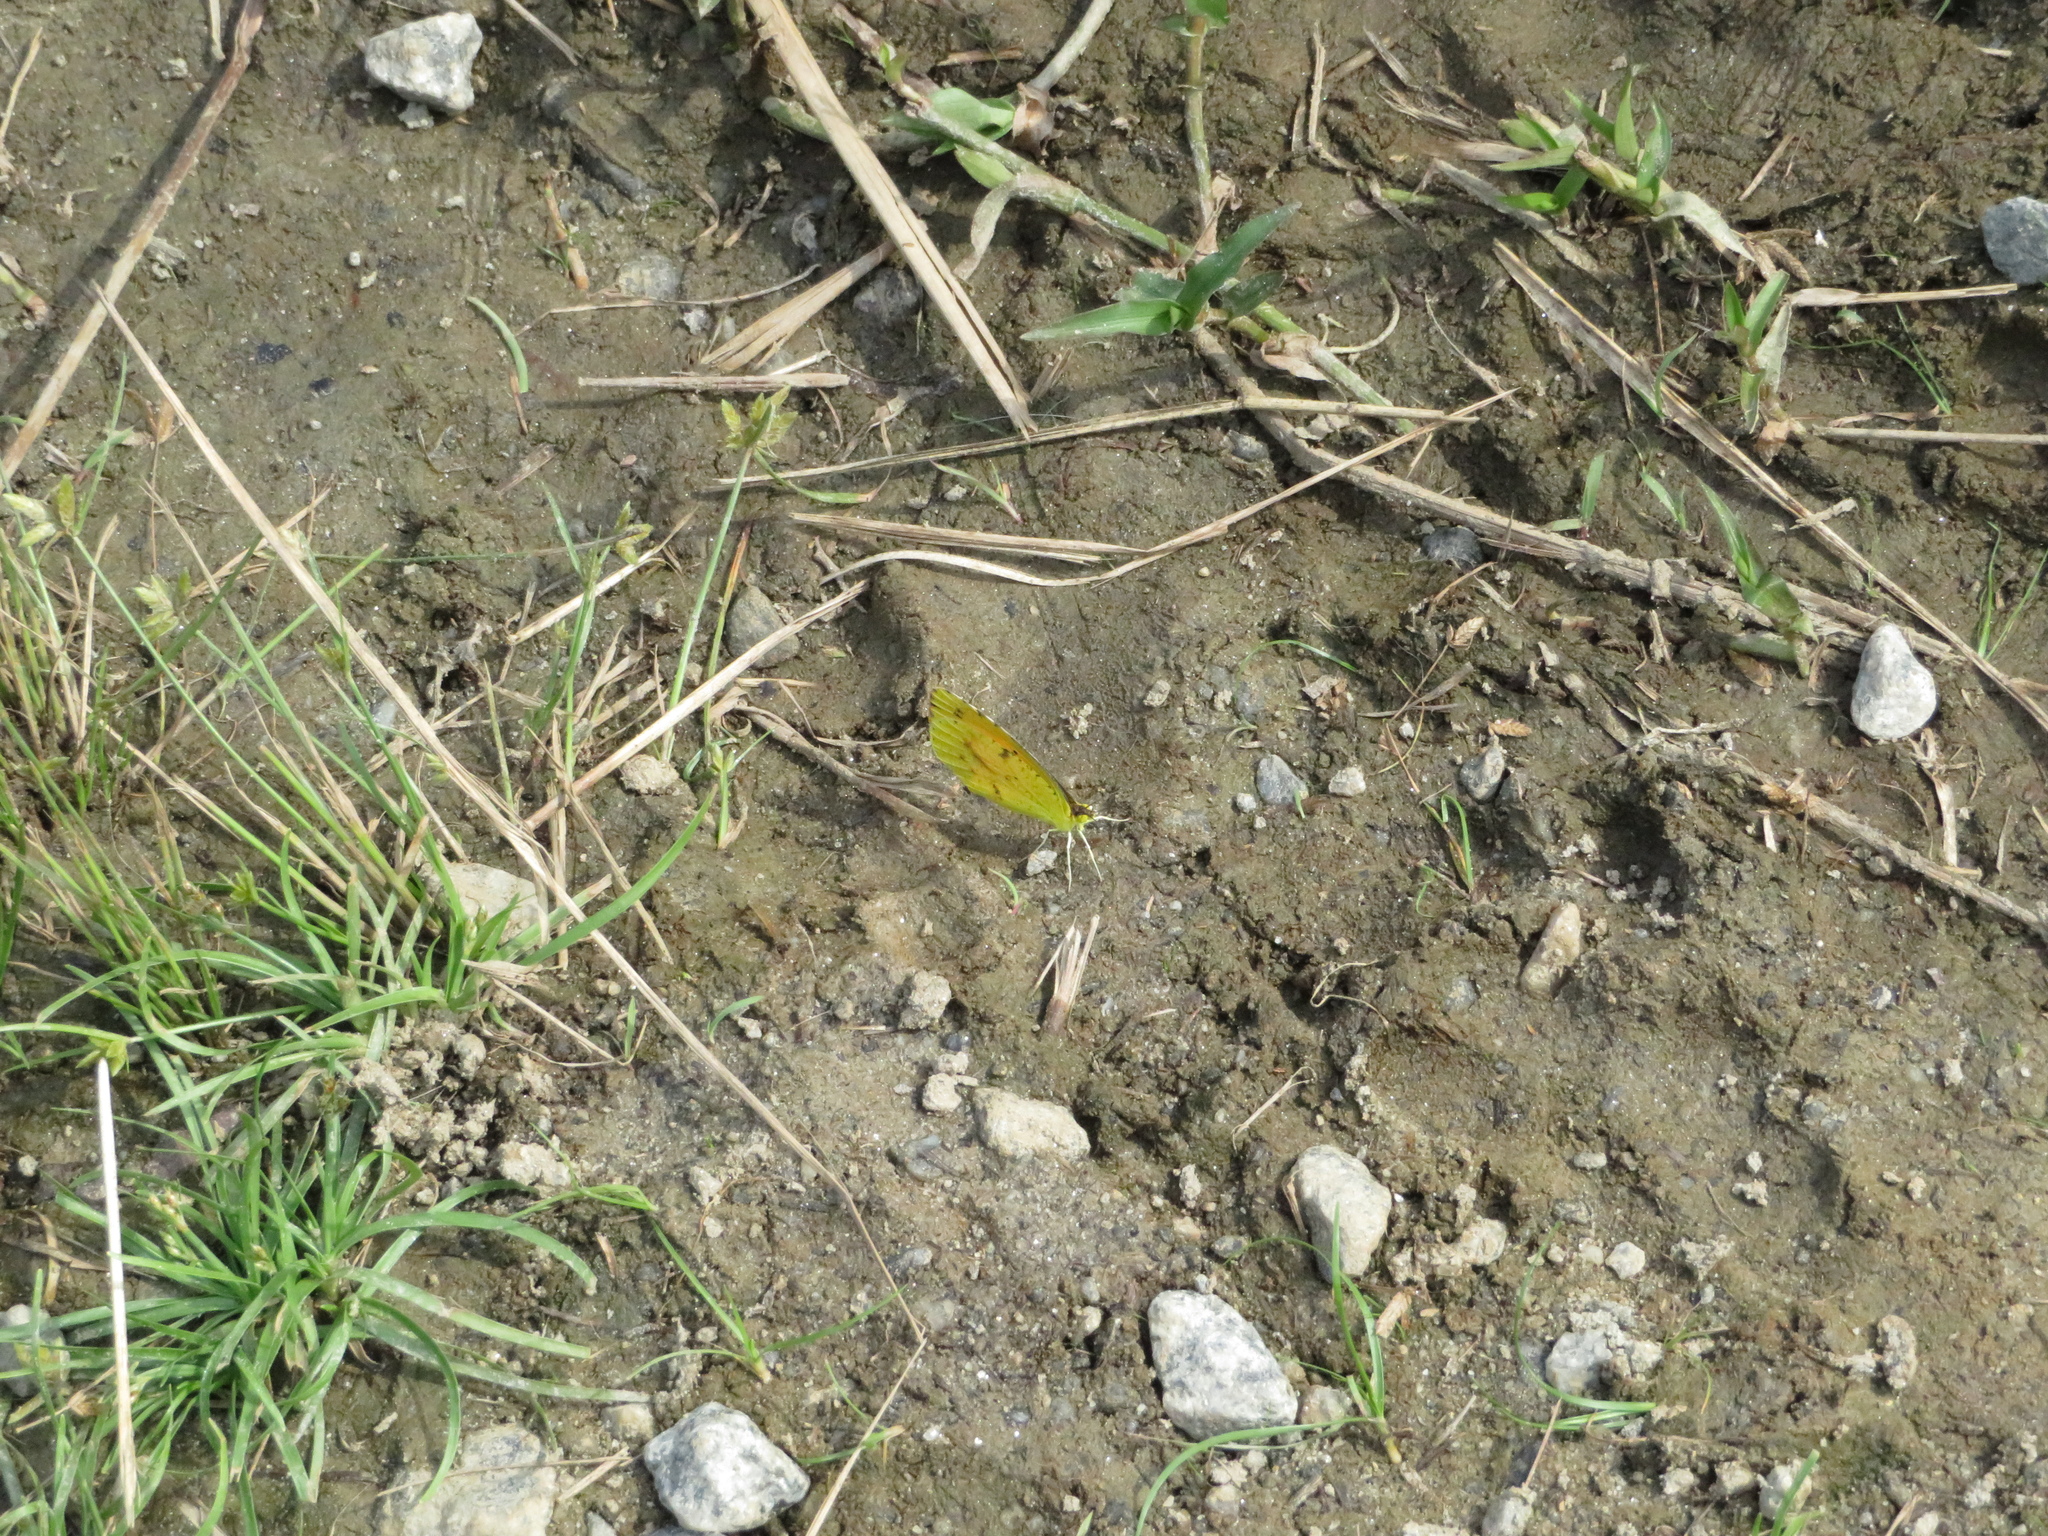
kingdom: Animalia
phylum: Arthropoda
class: Insecta
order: Lepidoptera
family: Pieridae
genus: Abaeis
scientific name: Abaeis nicippe
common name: Sleepy orange
